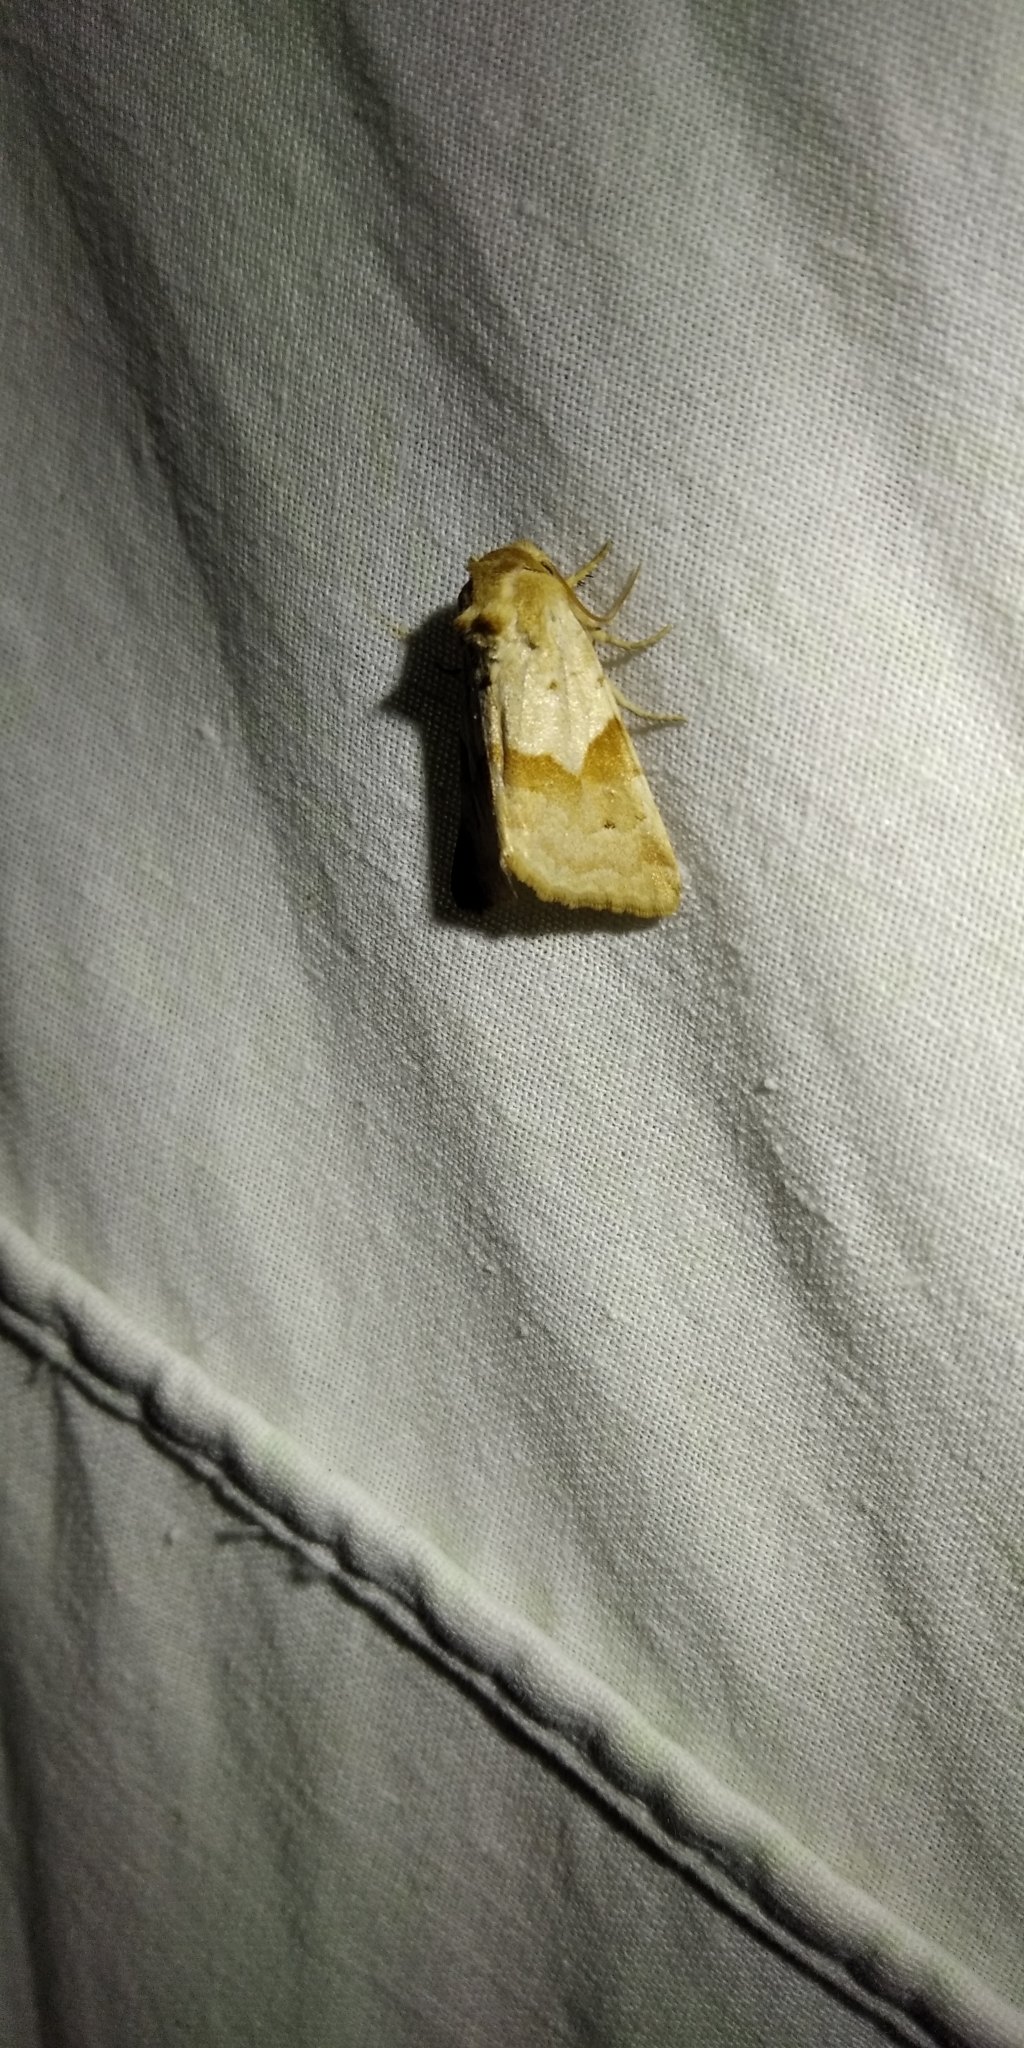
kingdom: Animalia
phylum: Arthropoda
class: Insecta
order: Lepidoptera
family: Noctuidae
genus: Mycteroplus
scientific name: Mycteroplus puniceago
